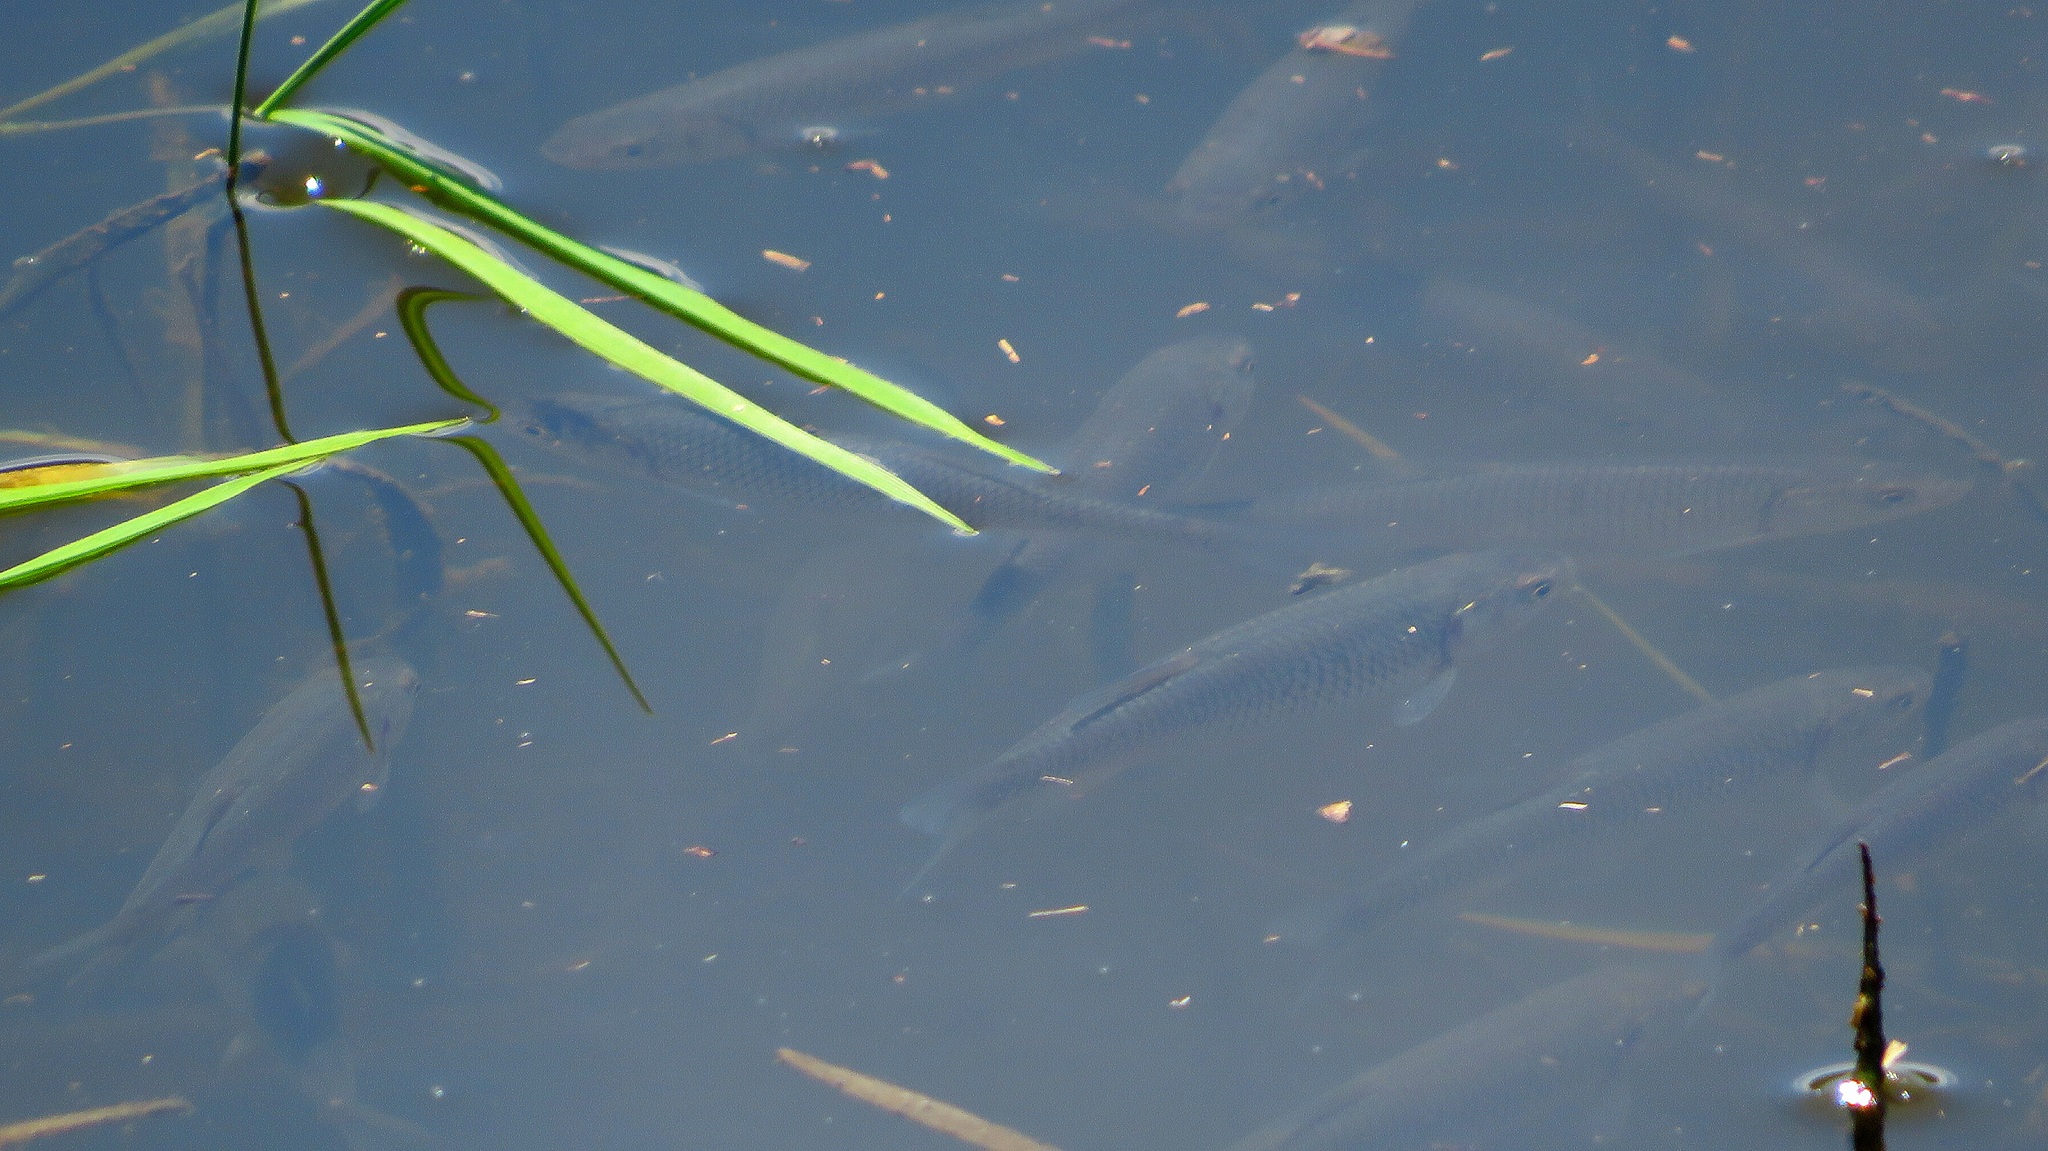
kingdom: Animalia
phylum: Chordata
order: Cypriniformes
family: Cyprinidae
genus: Rutilus
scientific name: Rutilus rutilus
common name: Roach
